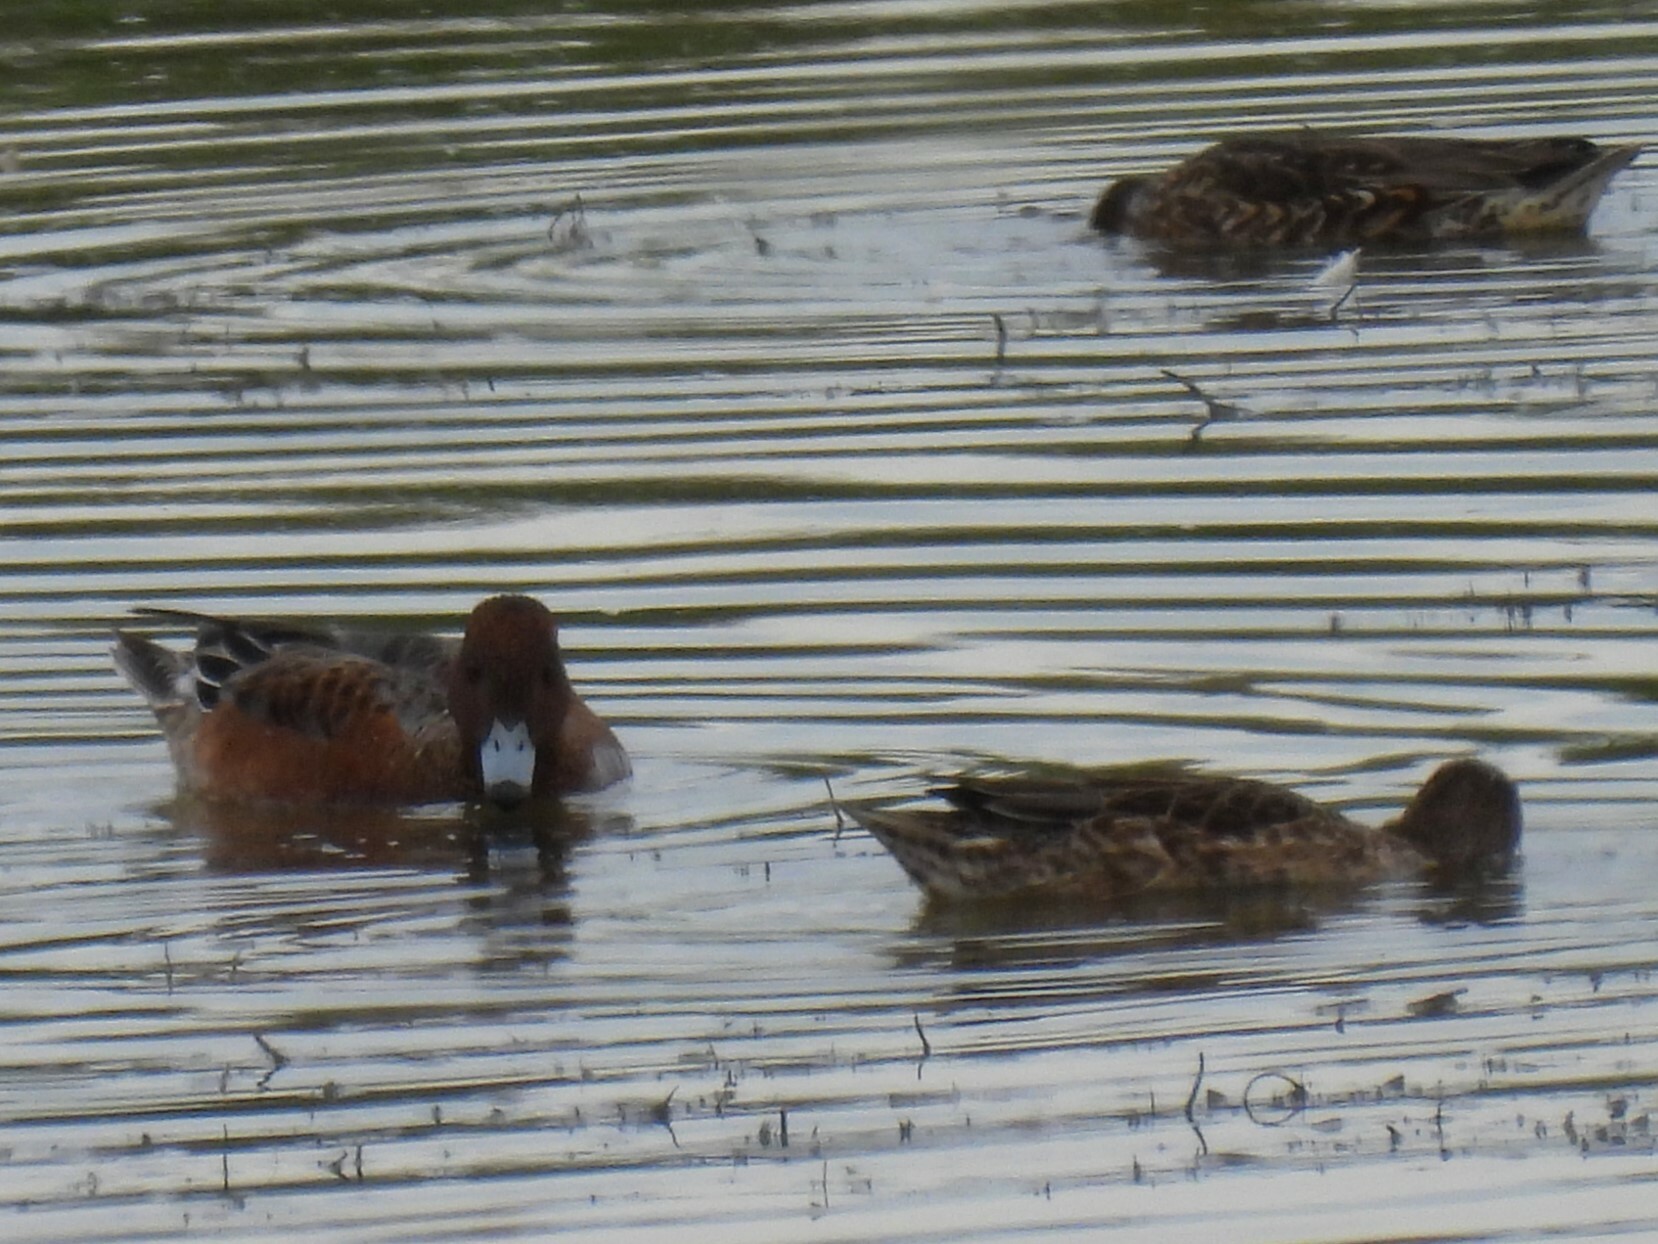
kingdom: Animalia
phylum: Chordata
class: Aves
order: Anseriformes
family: Anatidae
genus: Mareca
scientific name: Mareca penelope
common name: Eurasian wigeon
